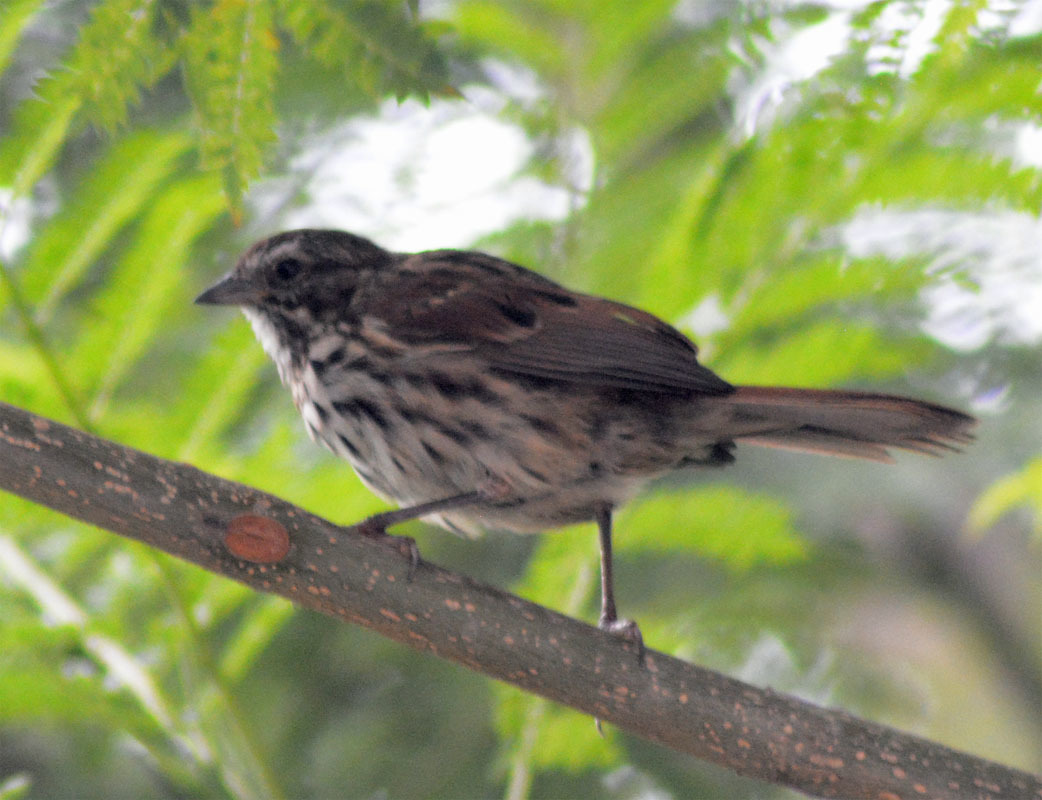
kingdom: Animalia
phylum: Chordata
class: Aves
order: Passeriformes
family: Passerellidae
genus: Melospiza
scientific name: Melospiza melodia
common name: Song sparrow
